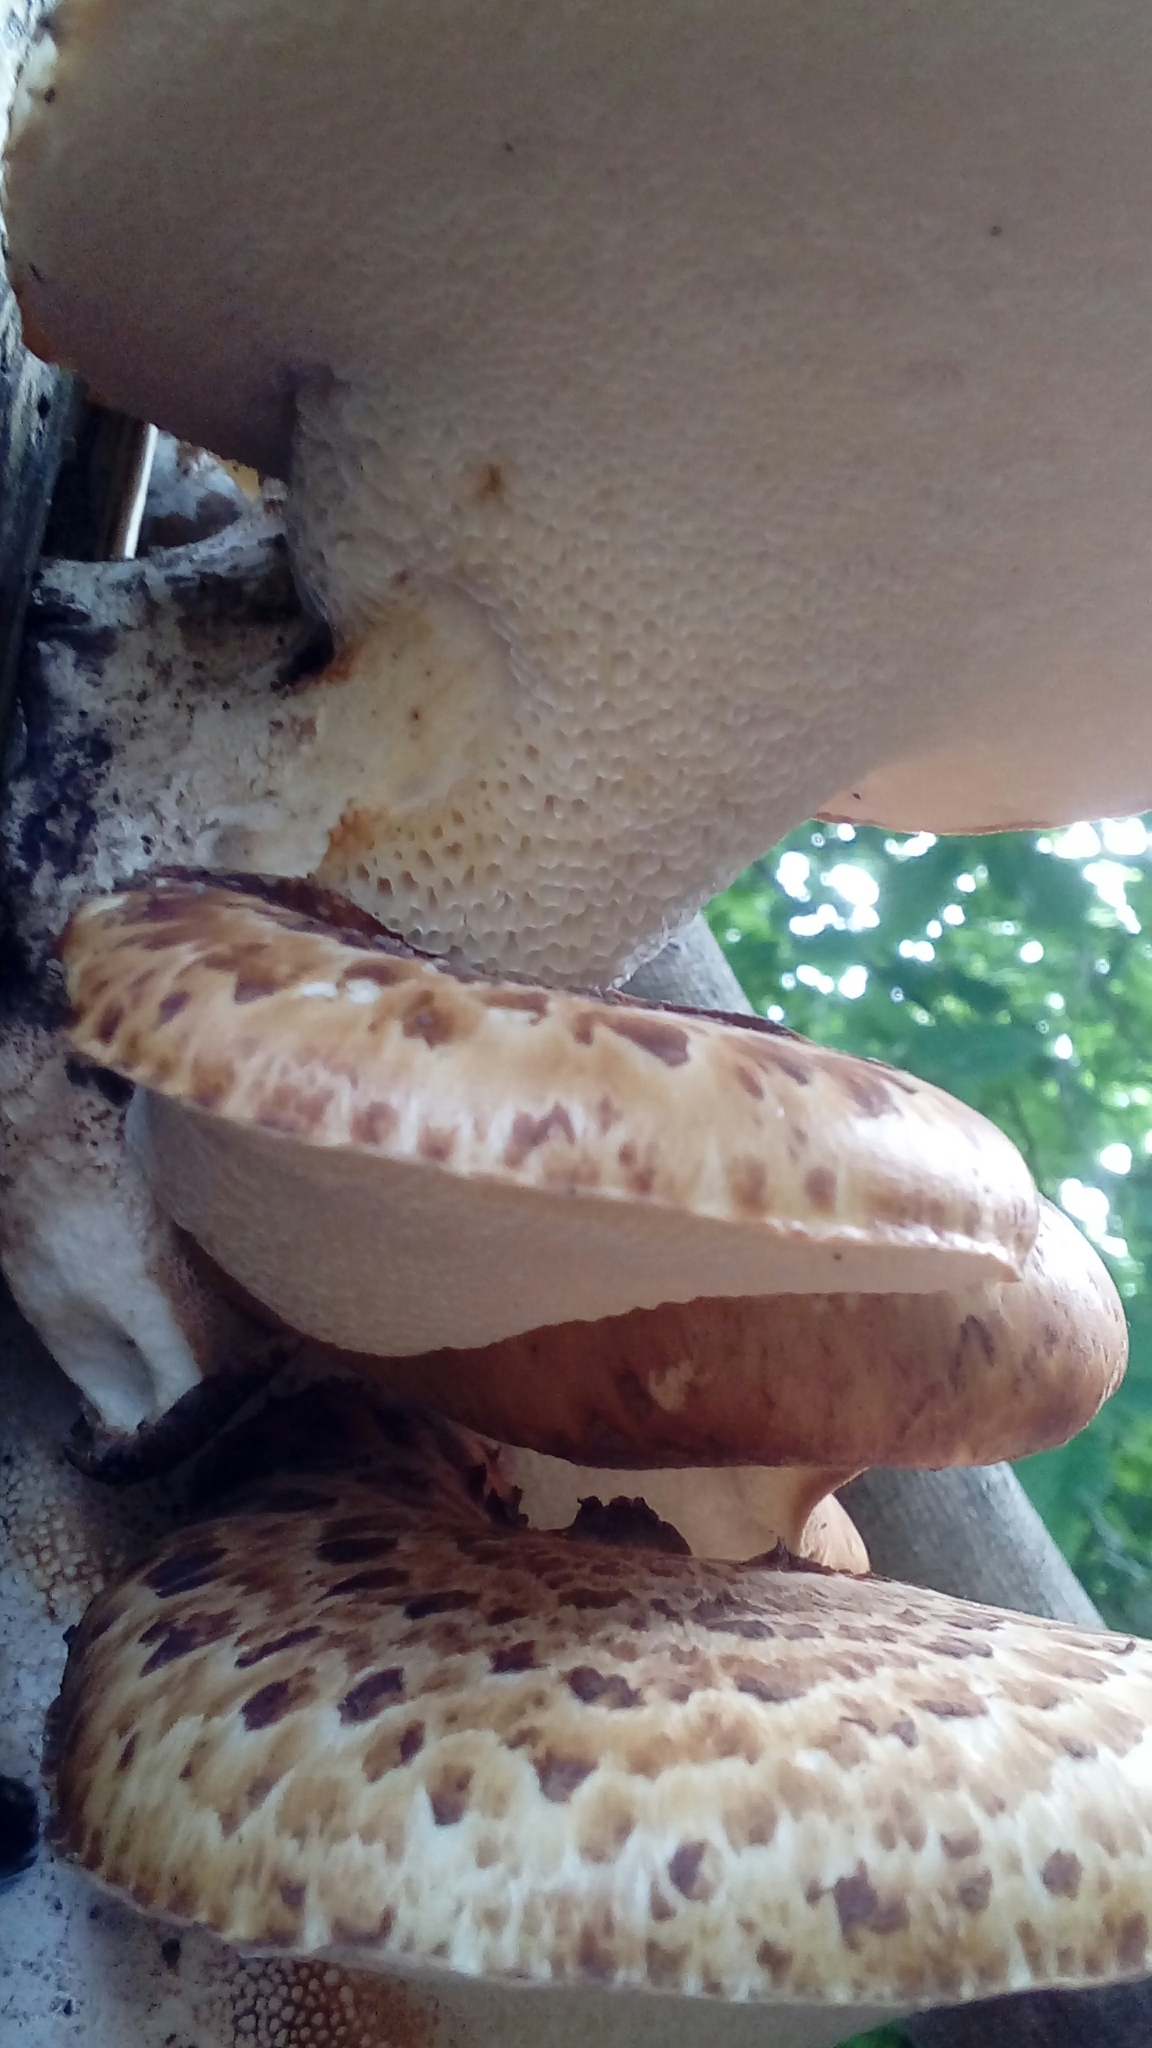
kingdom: Fungi
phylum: Basidiomycota
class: Agaricomycetes
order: Polyporales
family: Polyporaceae
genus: Cerioporus
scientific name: Cerioporus squamosus
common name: Dryad's saddle
